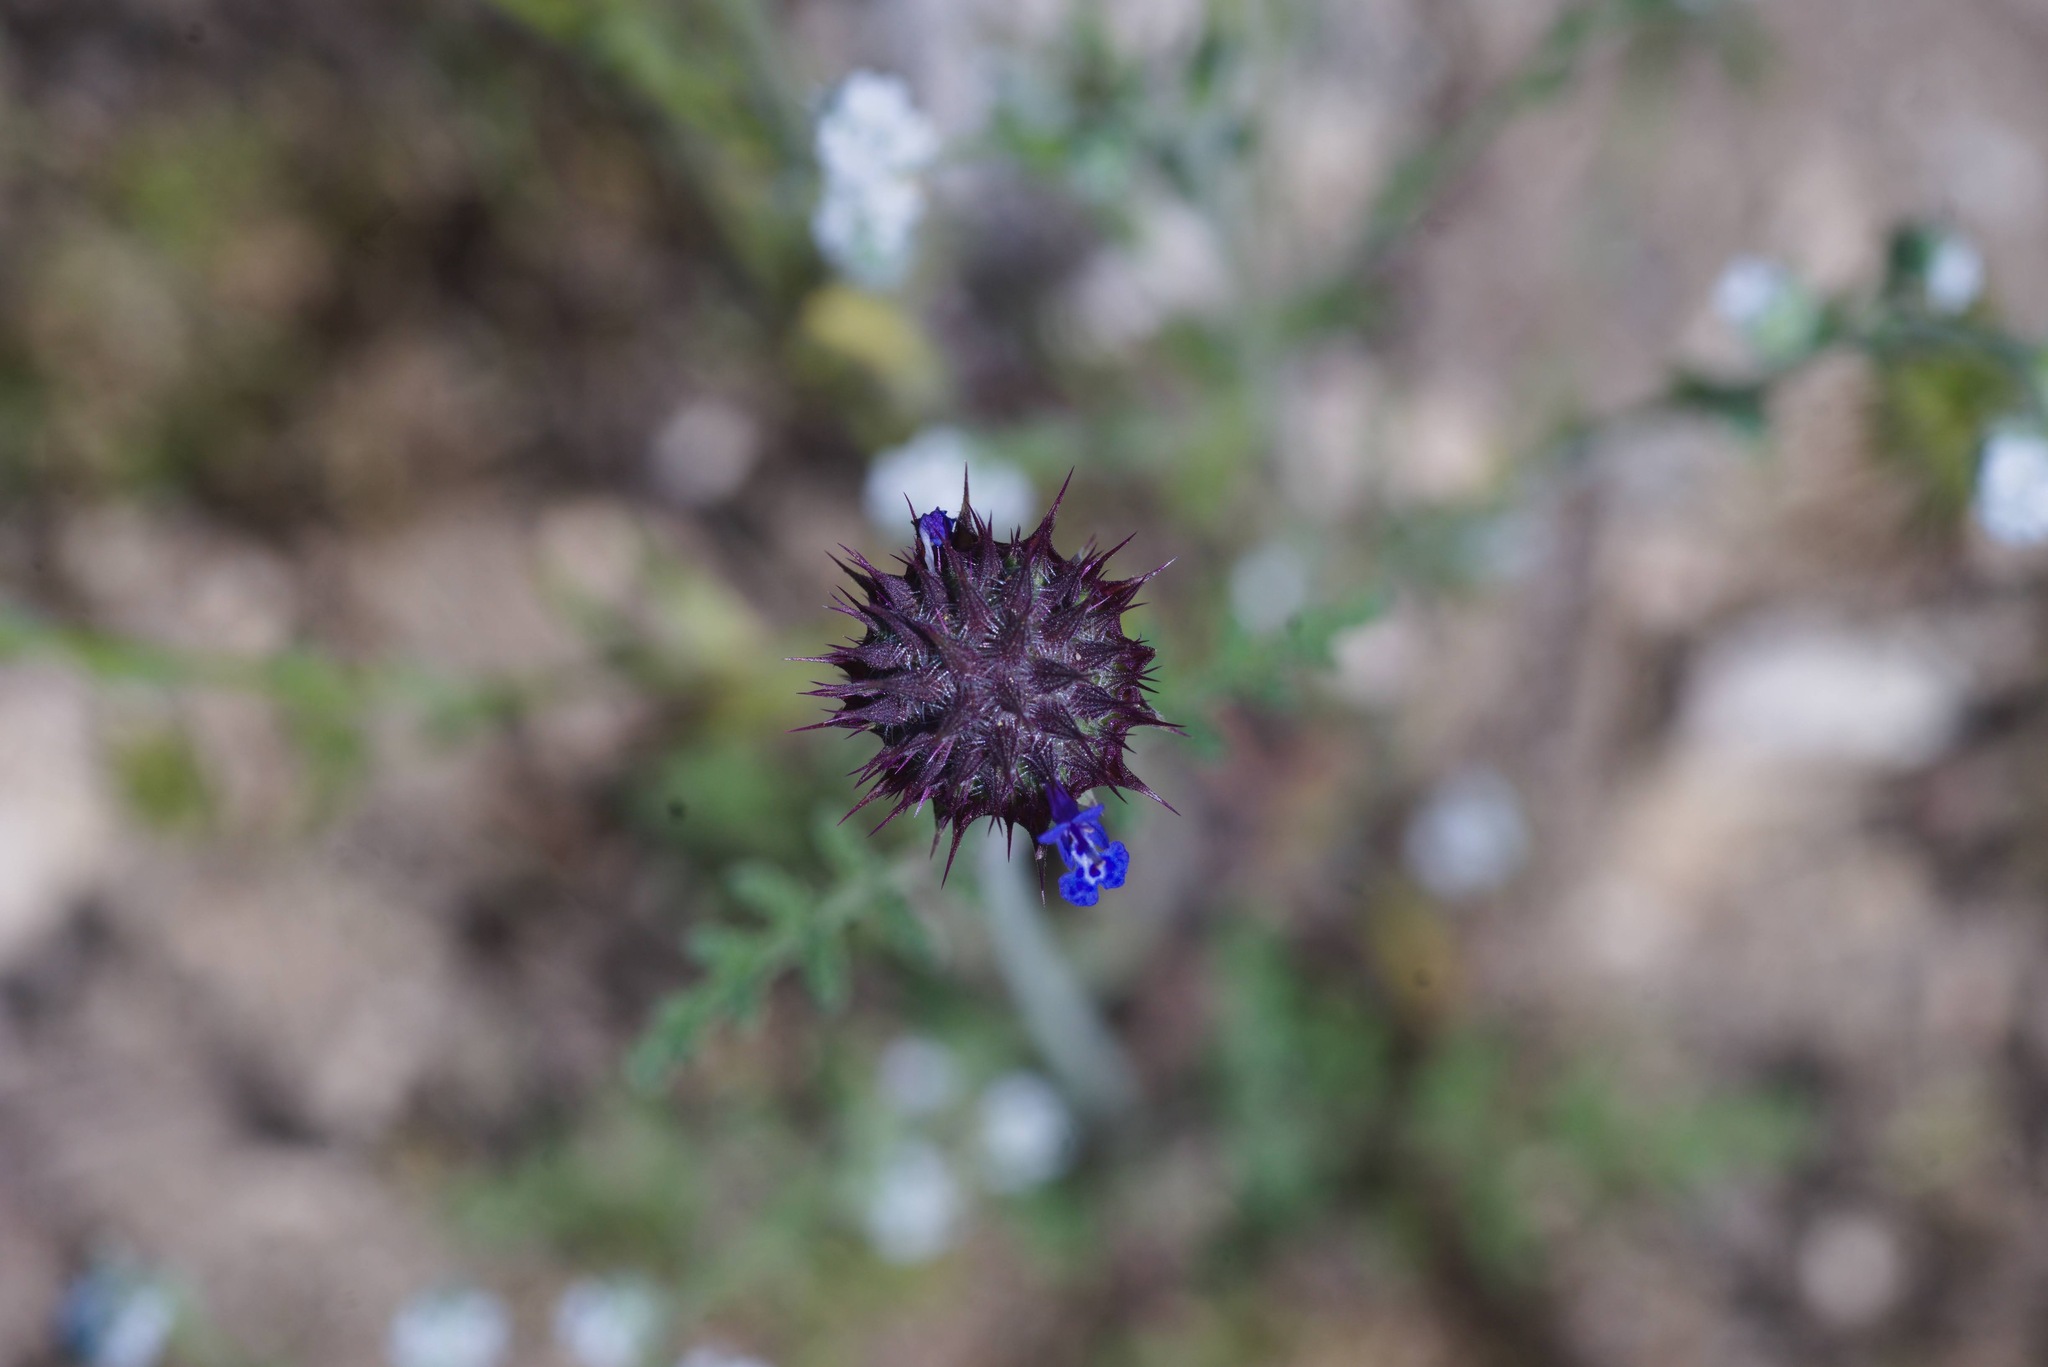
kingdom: Plantae
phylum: Tracheophyta
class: Magnoliopsida
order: Lamiales
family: Lamiaceae
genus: Salvia
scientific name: Salvia columbariae
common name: Chia
